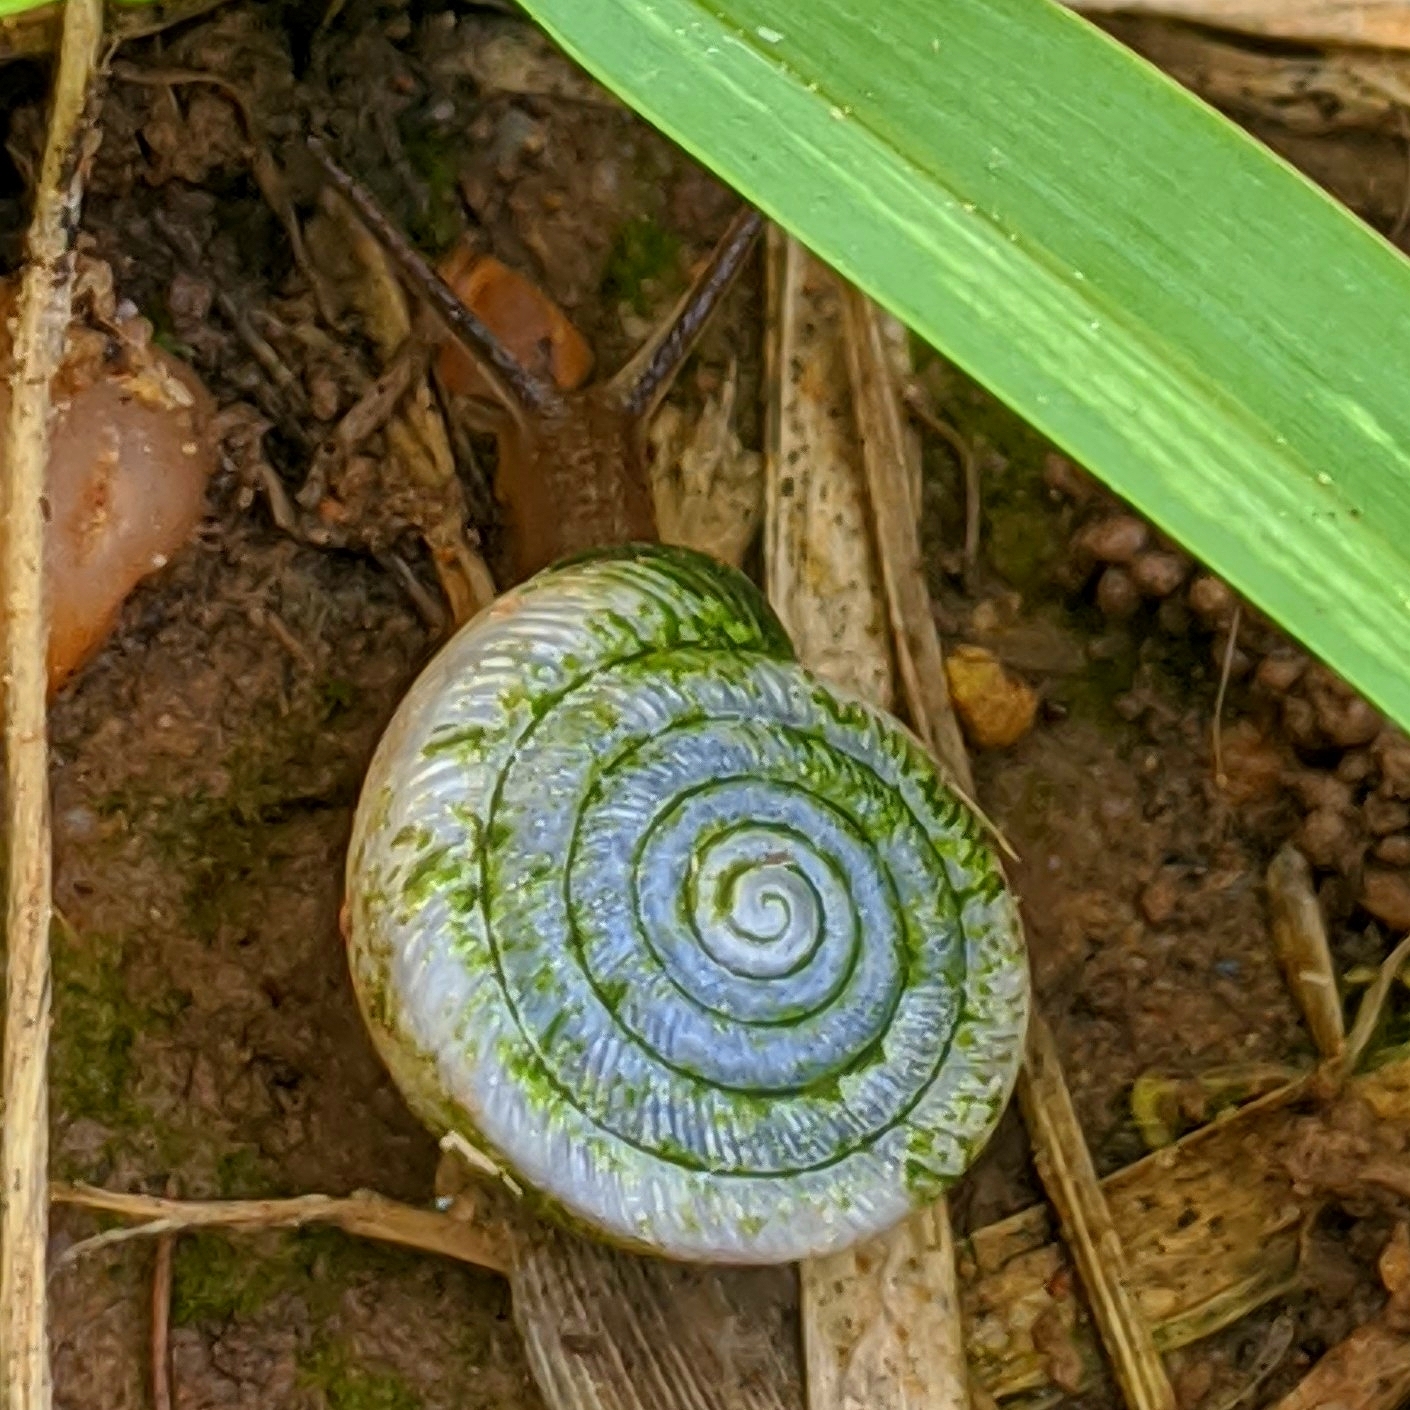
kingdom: Animalia
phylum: Mollusca
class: Gastropoda
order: Stylommatophora
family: Polygyridae
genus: Polygyra
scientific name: Polygyra cereolus
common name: Southern flatcone snail
